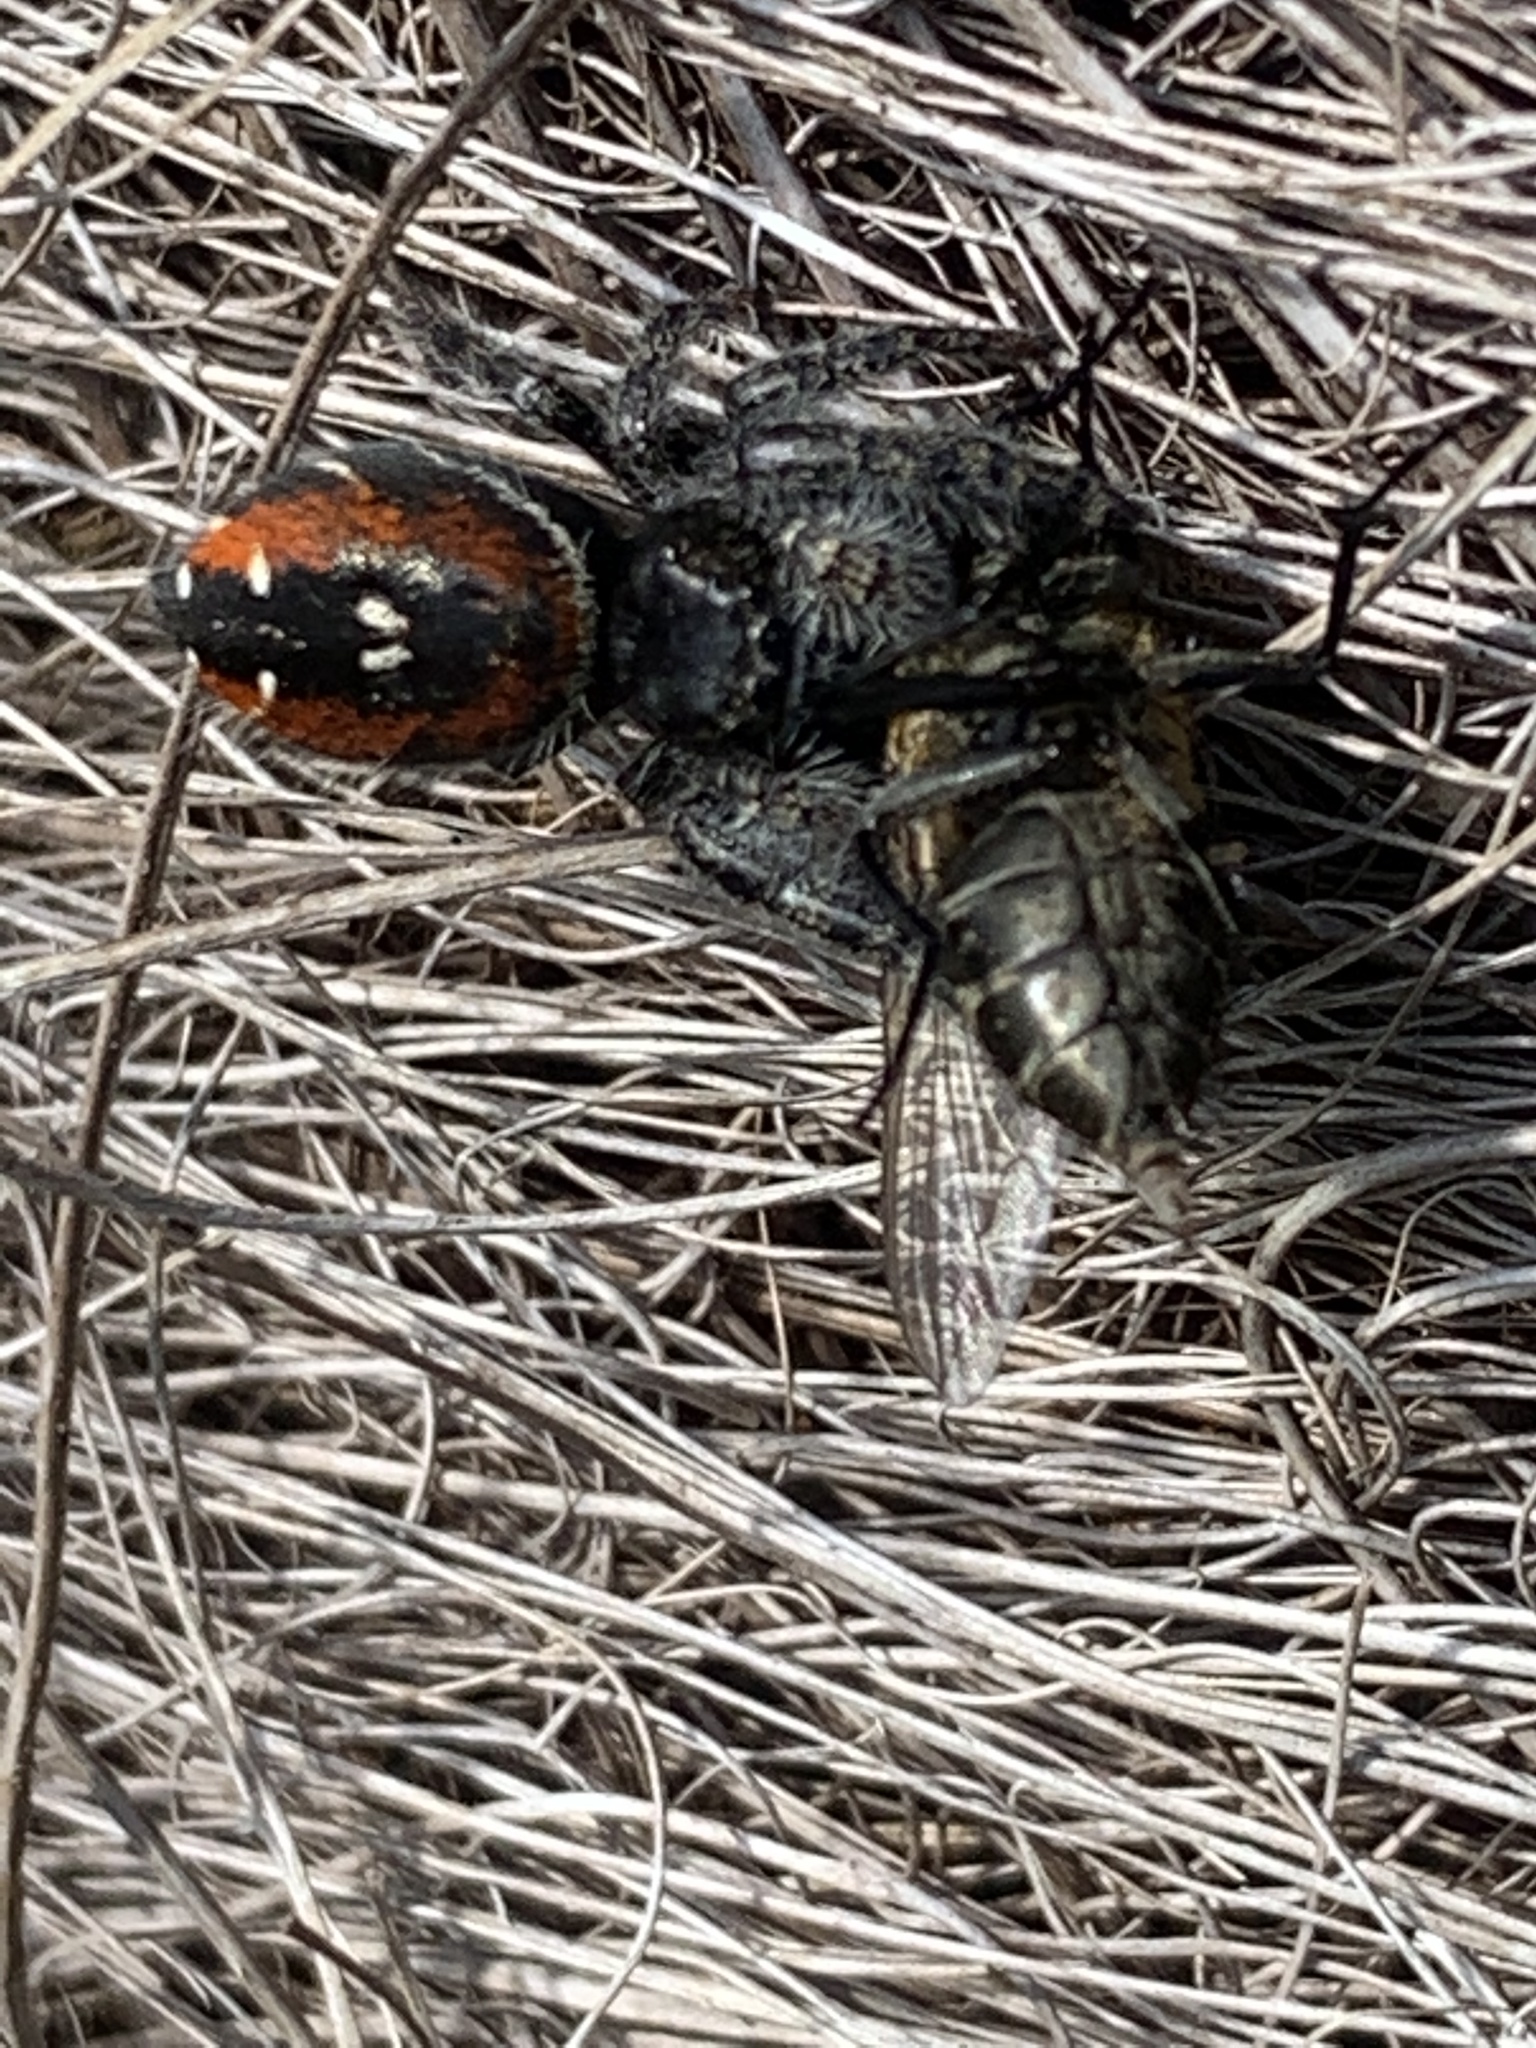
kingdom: Animalia
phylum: Arthropoda
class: Arachnida
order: Araneae
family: Salticidae
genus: Phidippus
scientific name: Phidippus johnsoni
